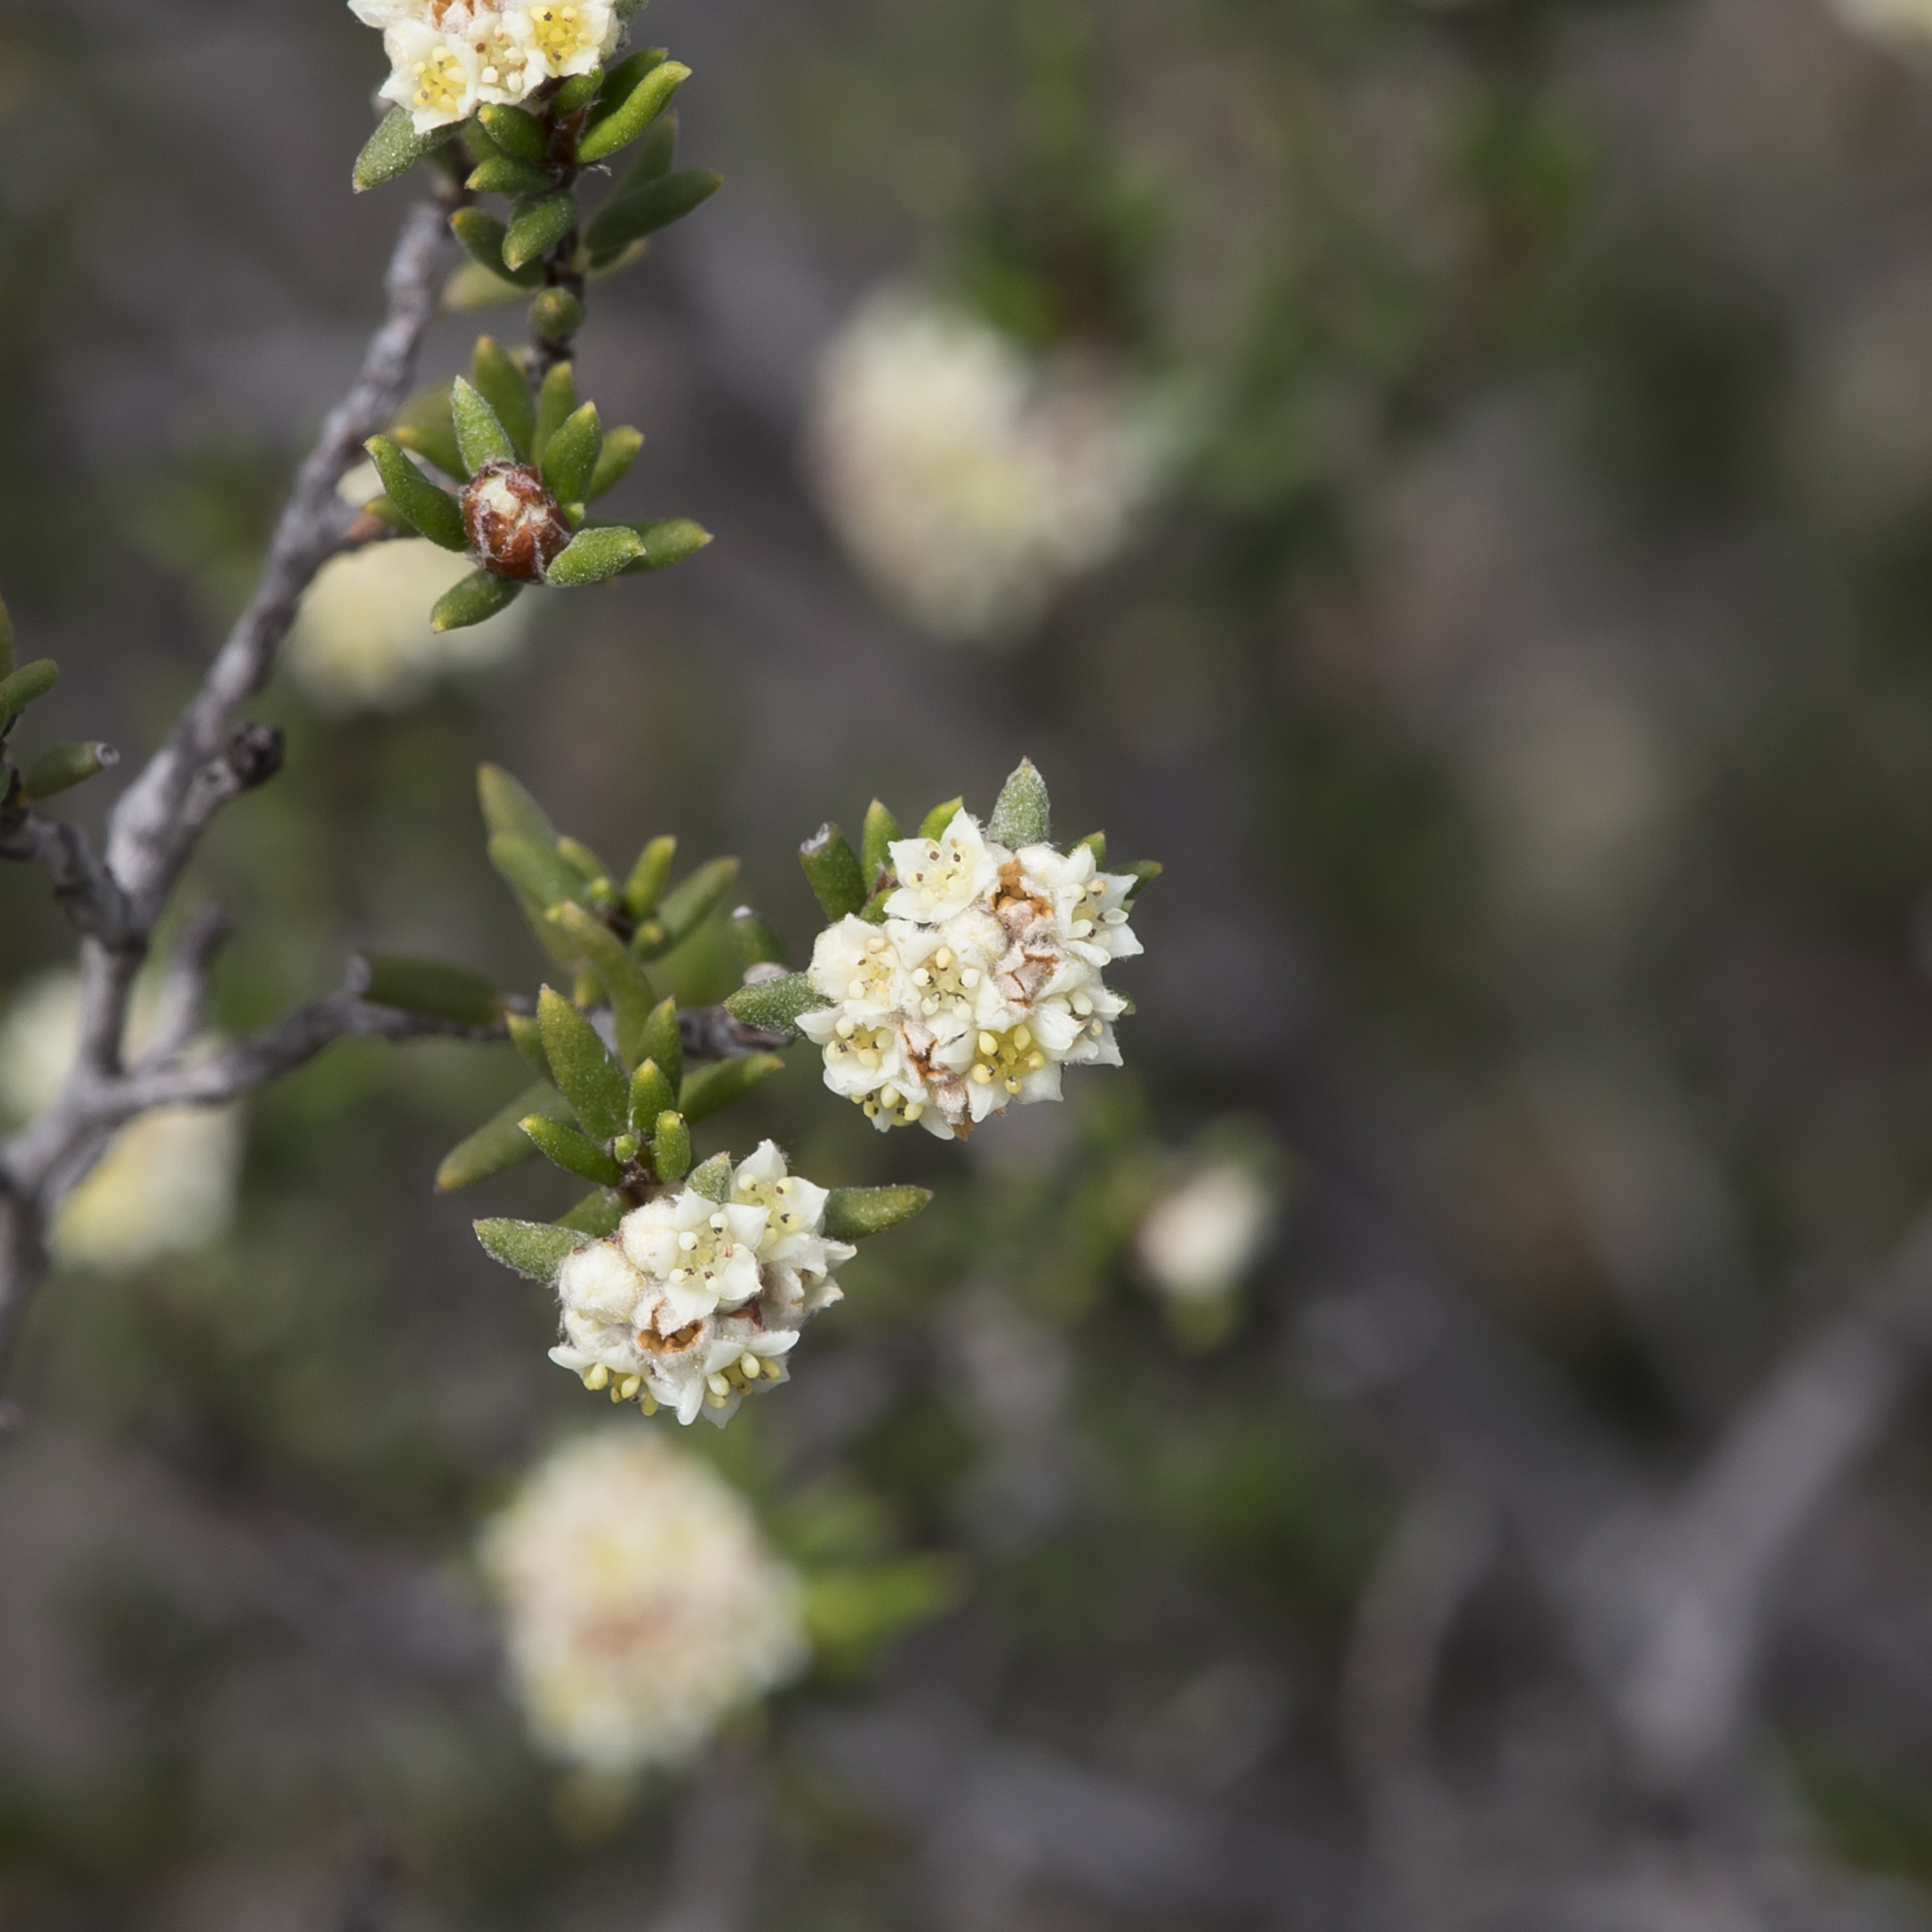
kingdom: Plantae
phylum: Tracheophyta
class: Magnoliopsida
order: Rosales
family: Rhamnaceae
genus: Spyridium
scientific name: Spyridium eriocephalum
